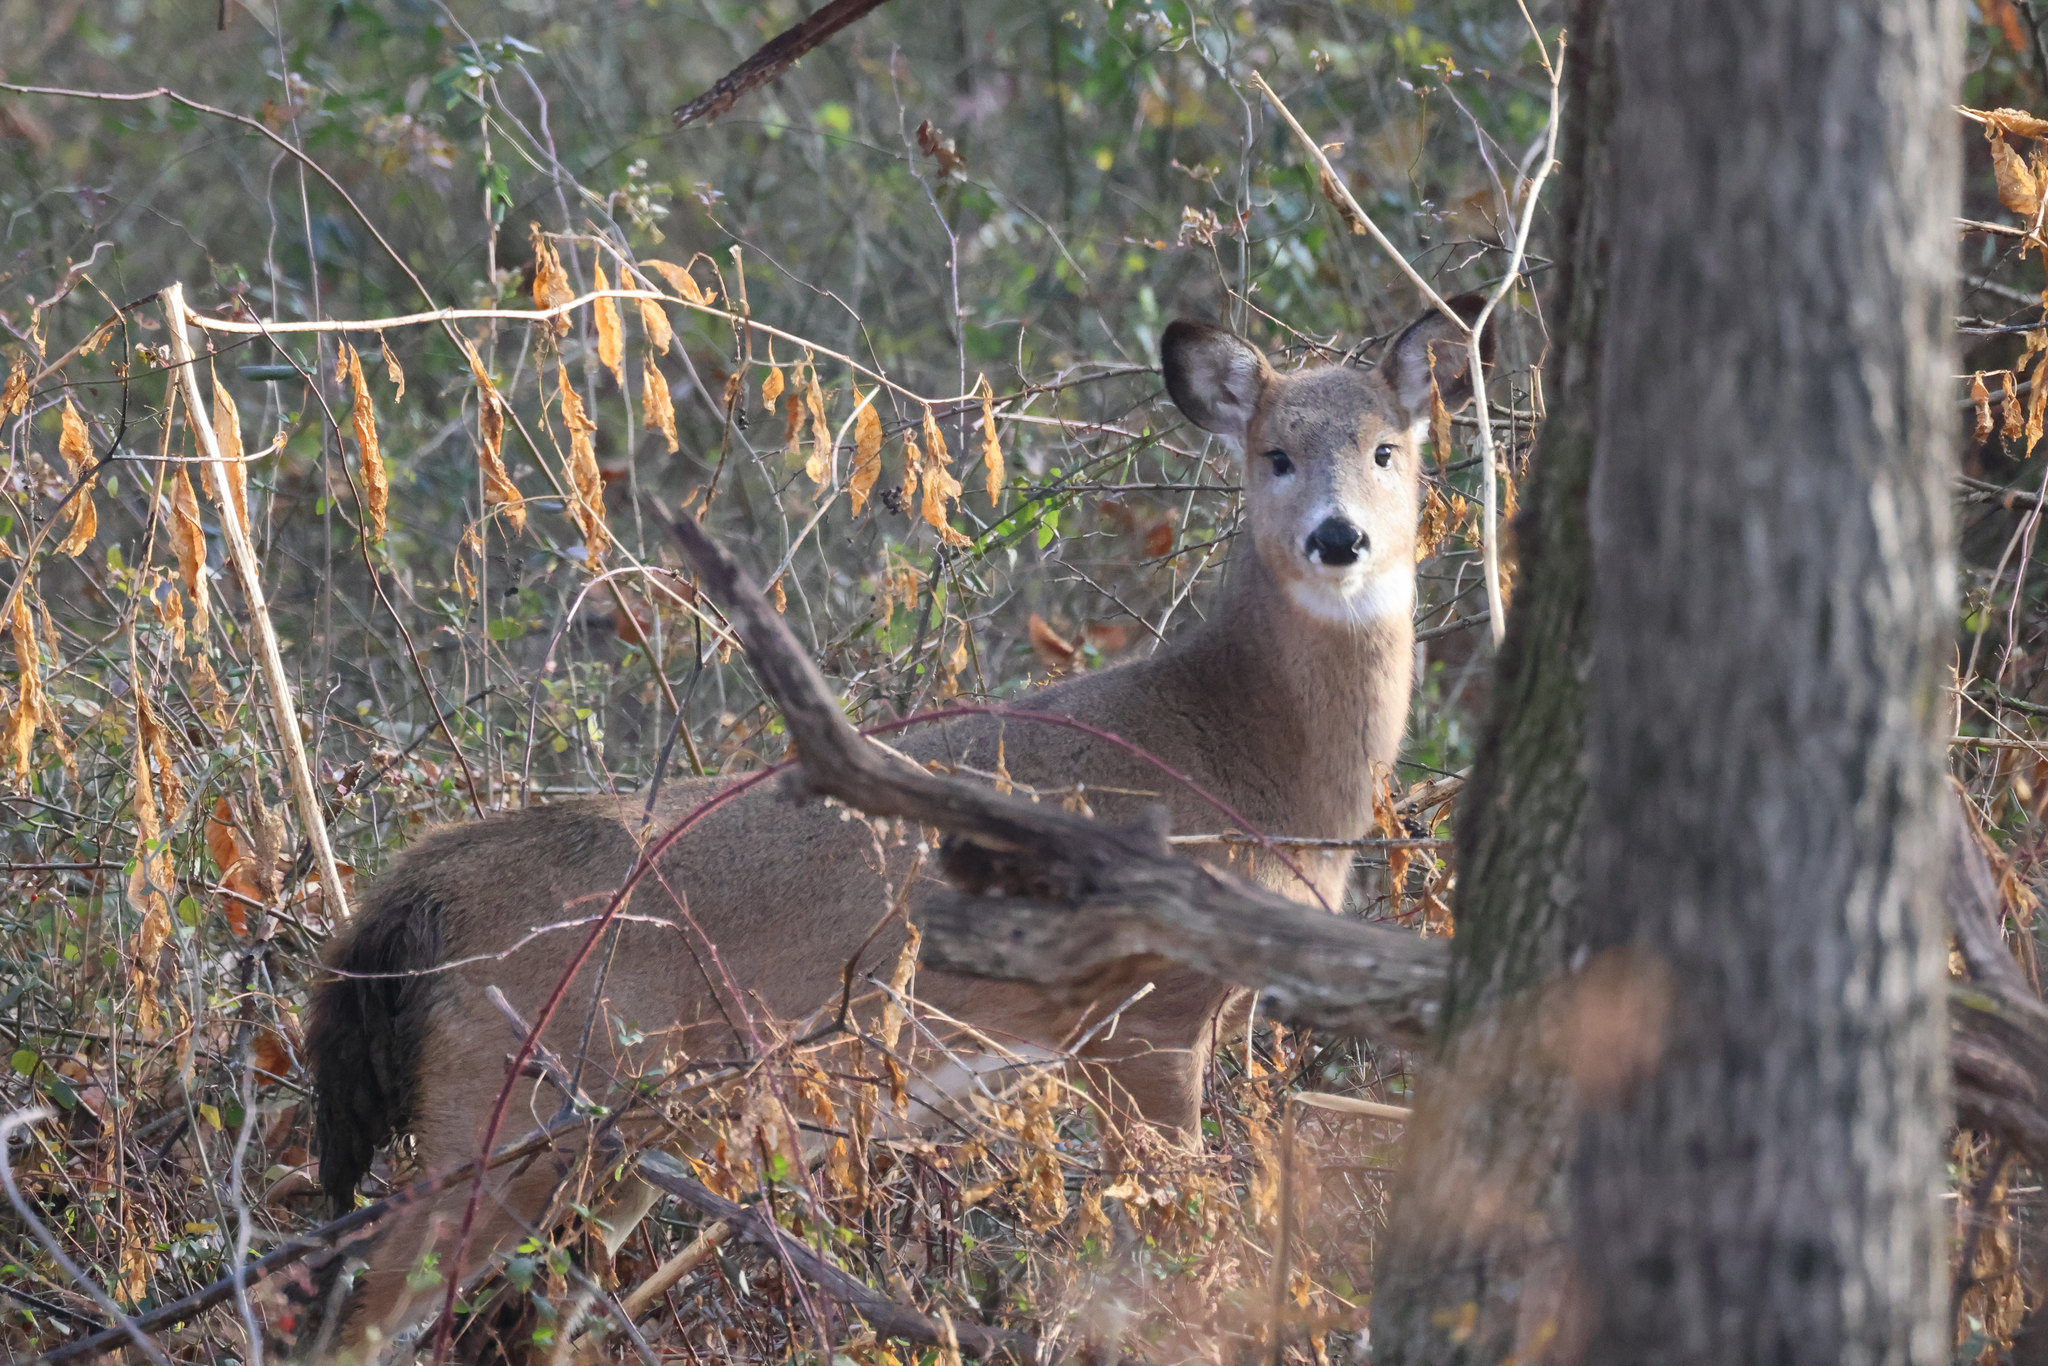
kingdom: Animalia
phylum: Chordata
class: Mammalia
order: Artiodactyla
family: Cervidae
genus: Odocoileus
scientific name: Odocoileus virginianus
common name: White-tailed deer
